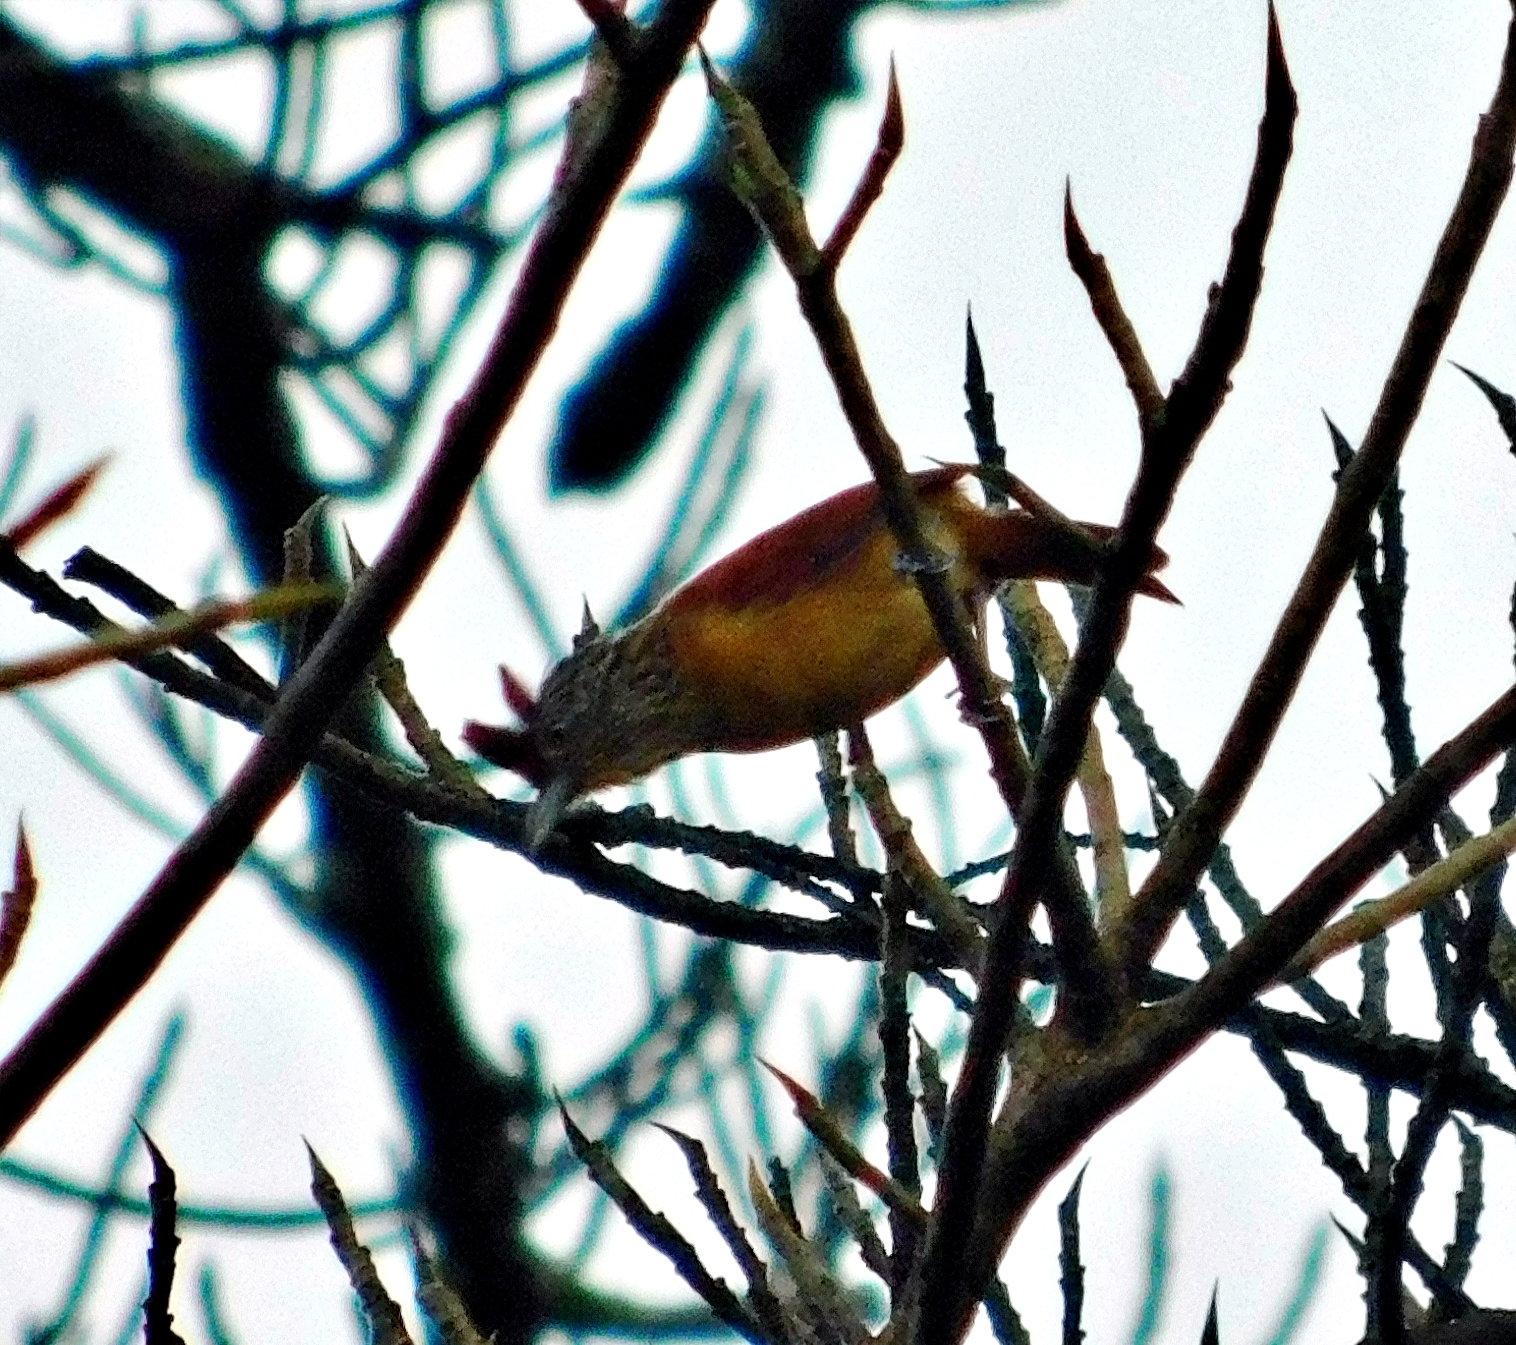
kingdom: Animalia
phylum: Chordata
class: Aves
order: Passeriformes
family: Thamnophilidae
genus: Thamnophilus
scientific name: Thamnophilus doliatus
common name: Barred antshrike
